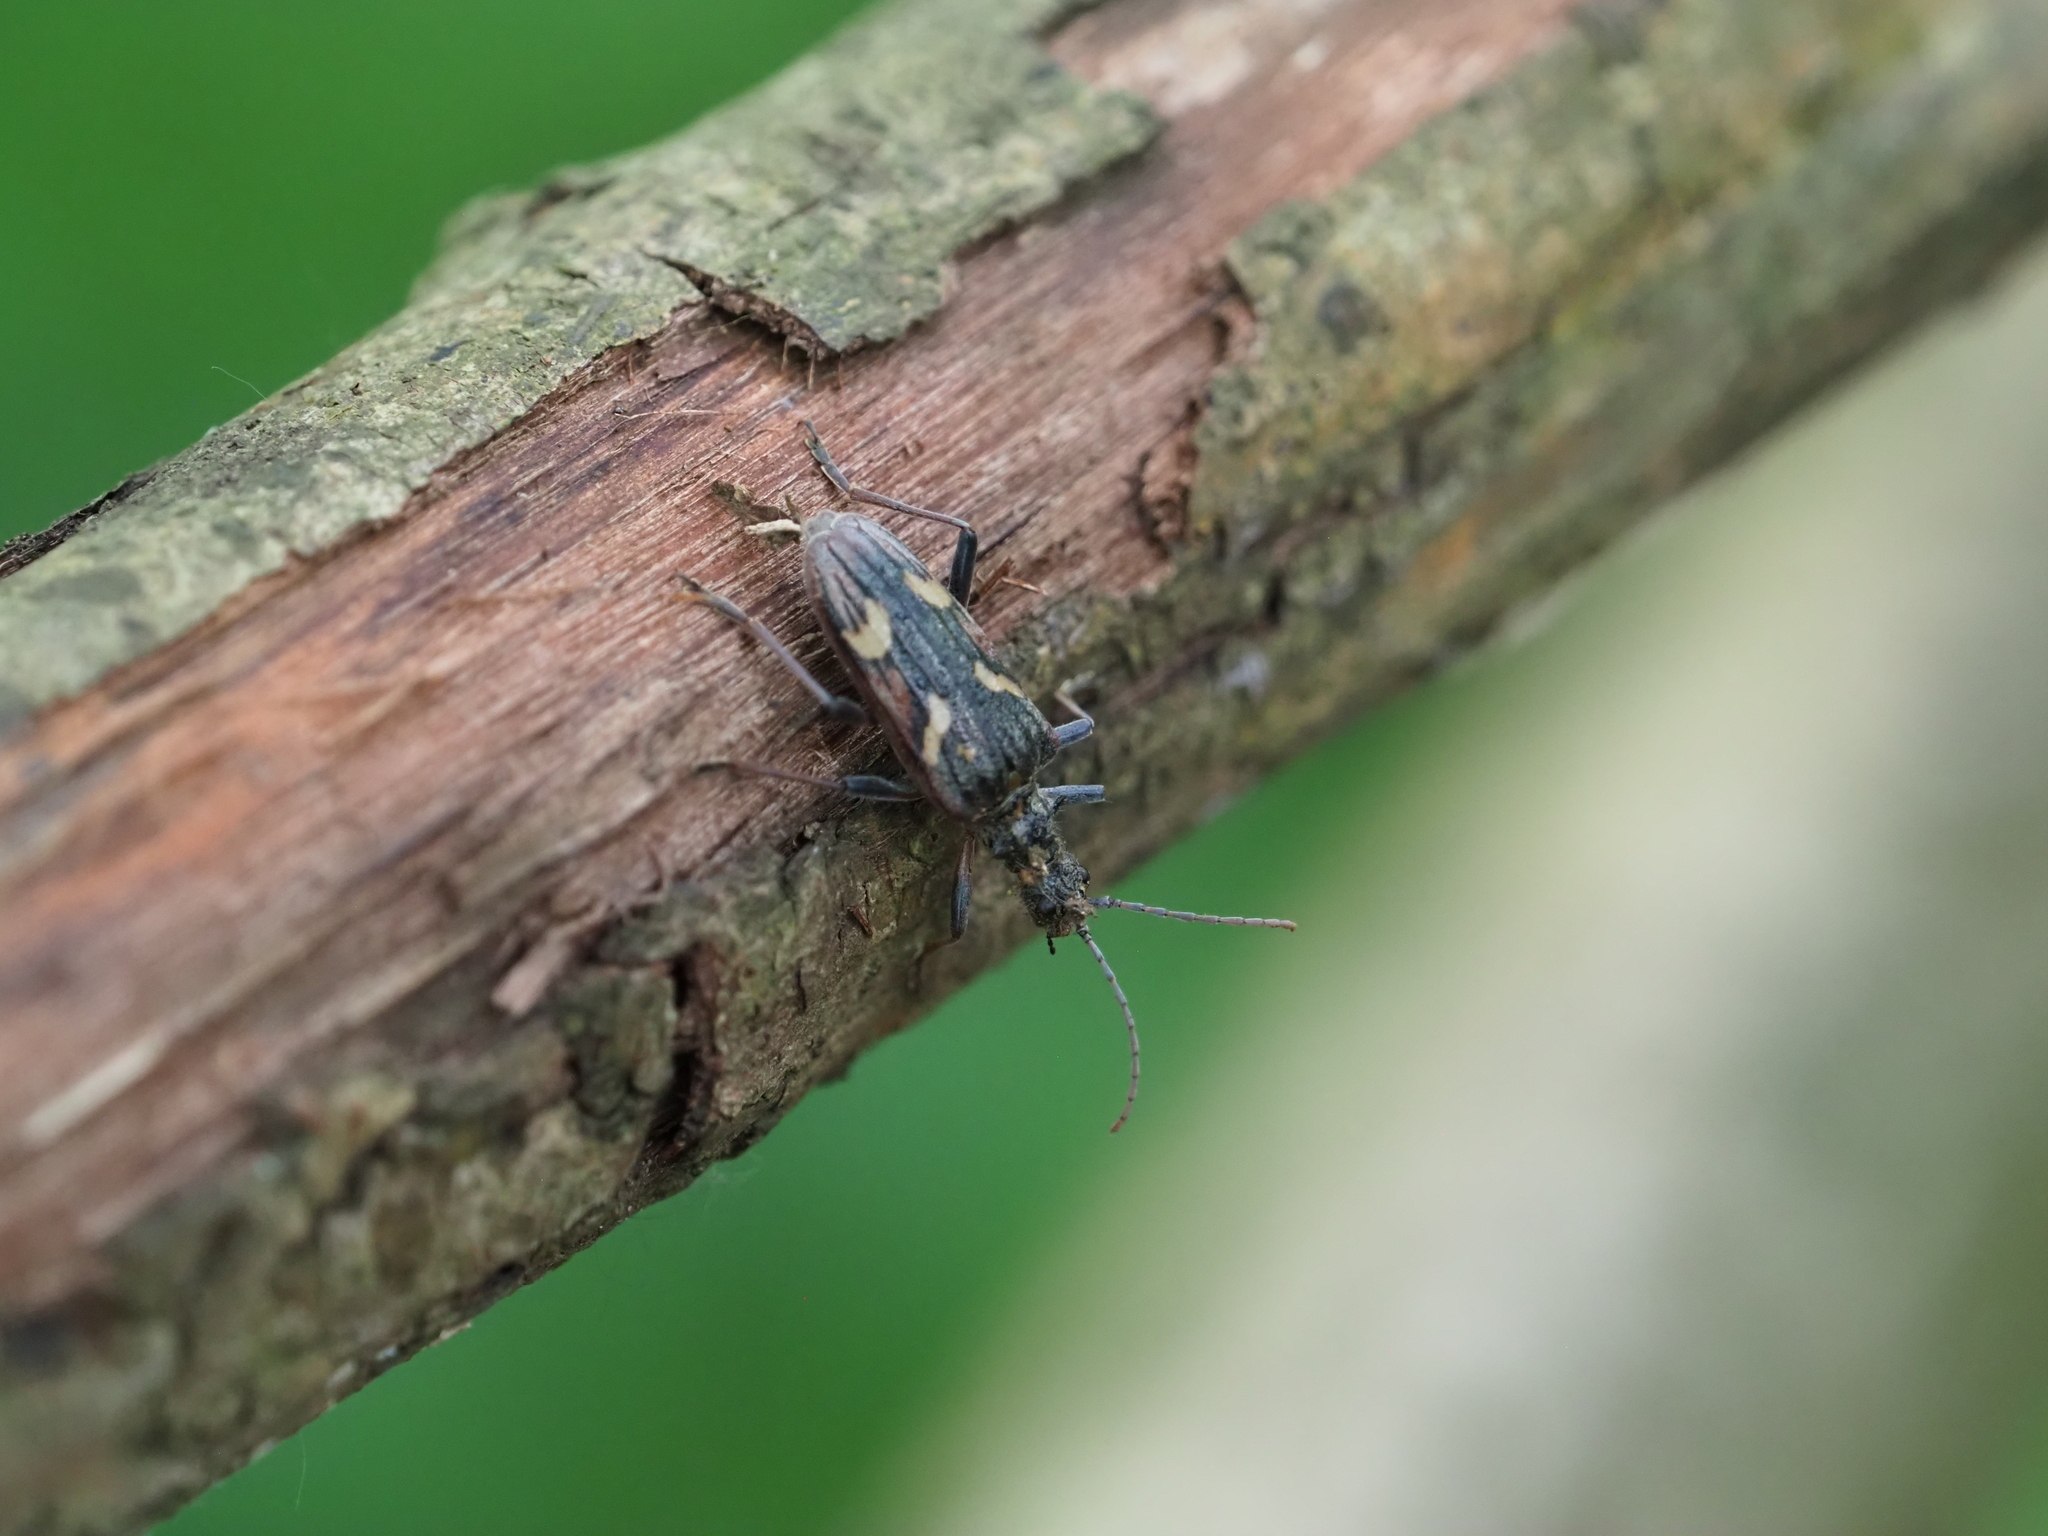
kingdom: Animalia
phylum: Arthropoda
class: Insecta
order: Coleoptera
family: Cerambycidae
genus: Rhagium
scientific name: Rhagium bifasciatum
